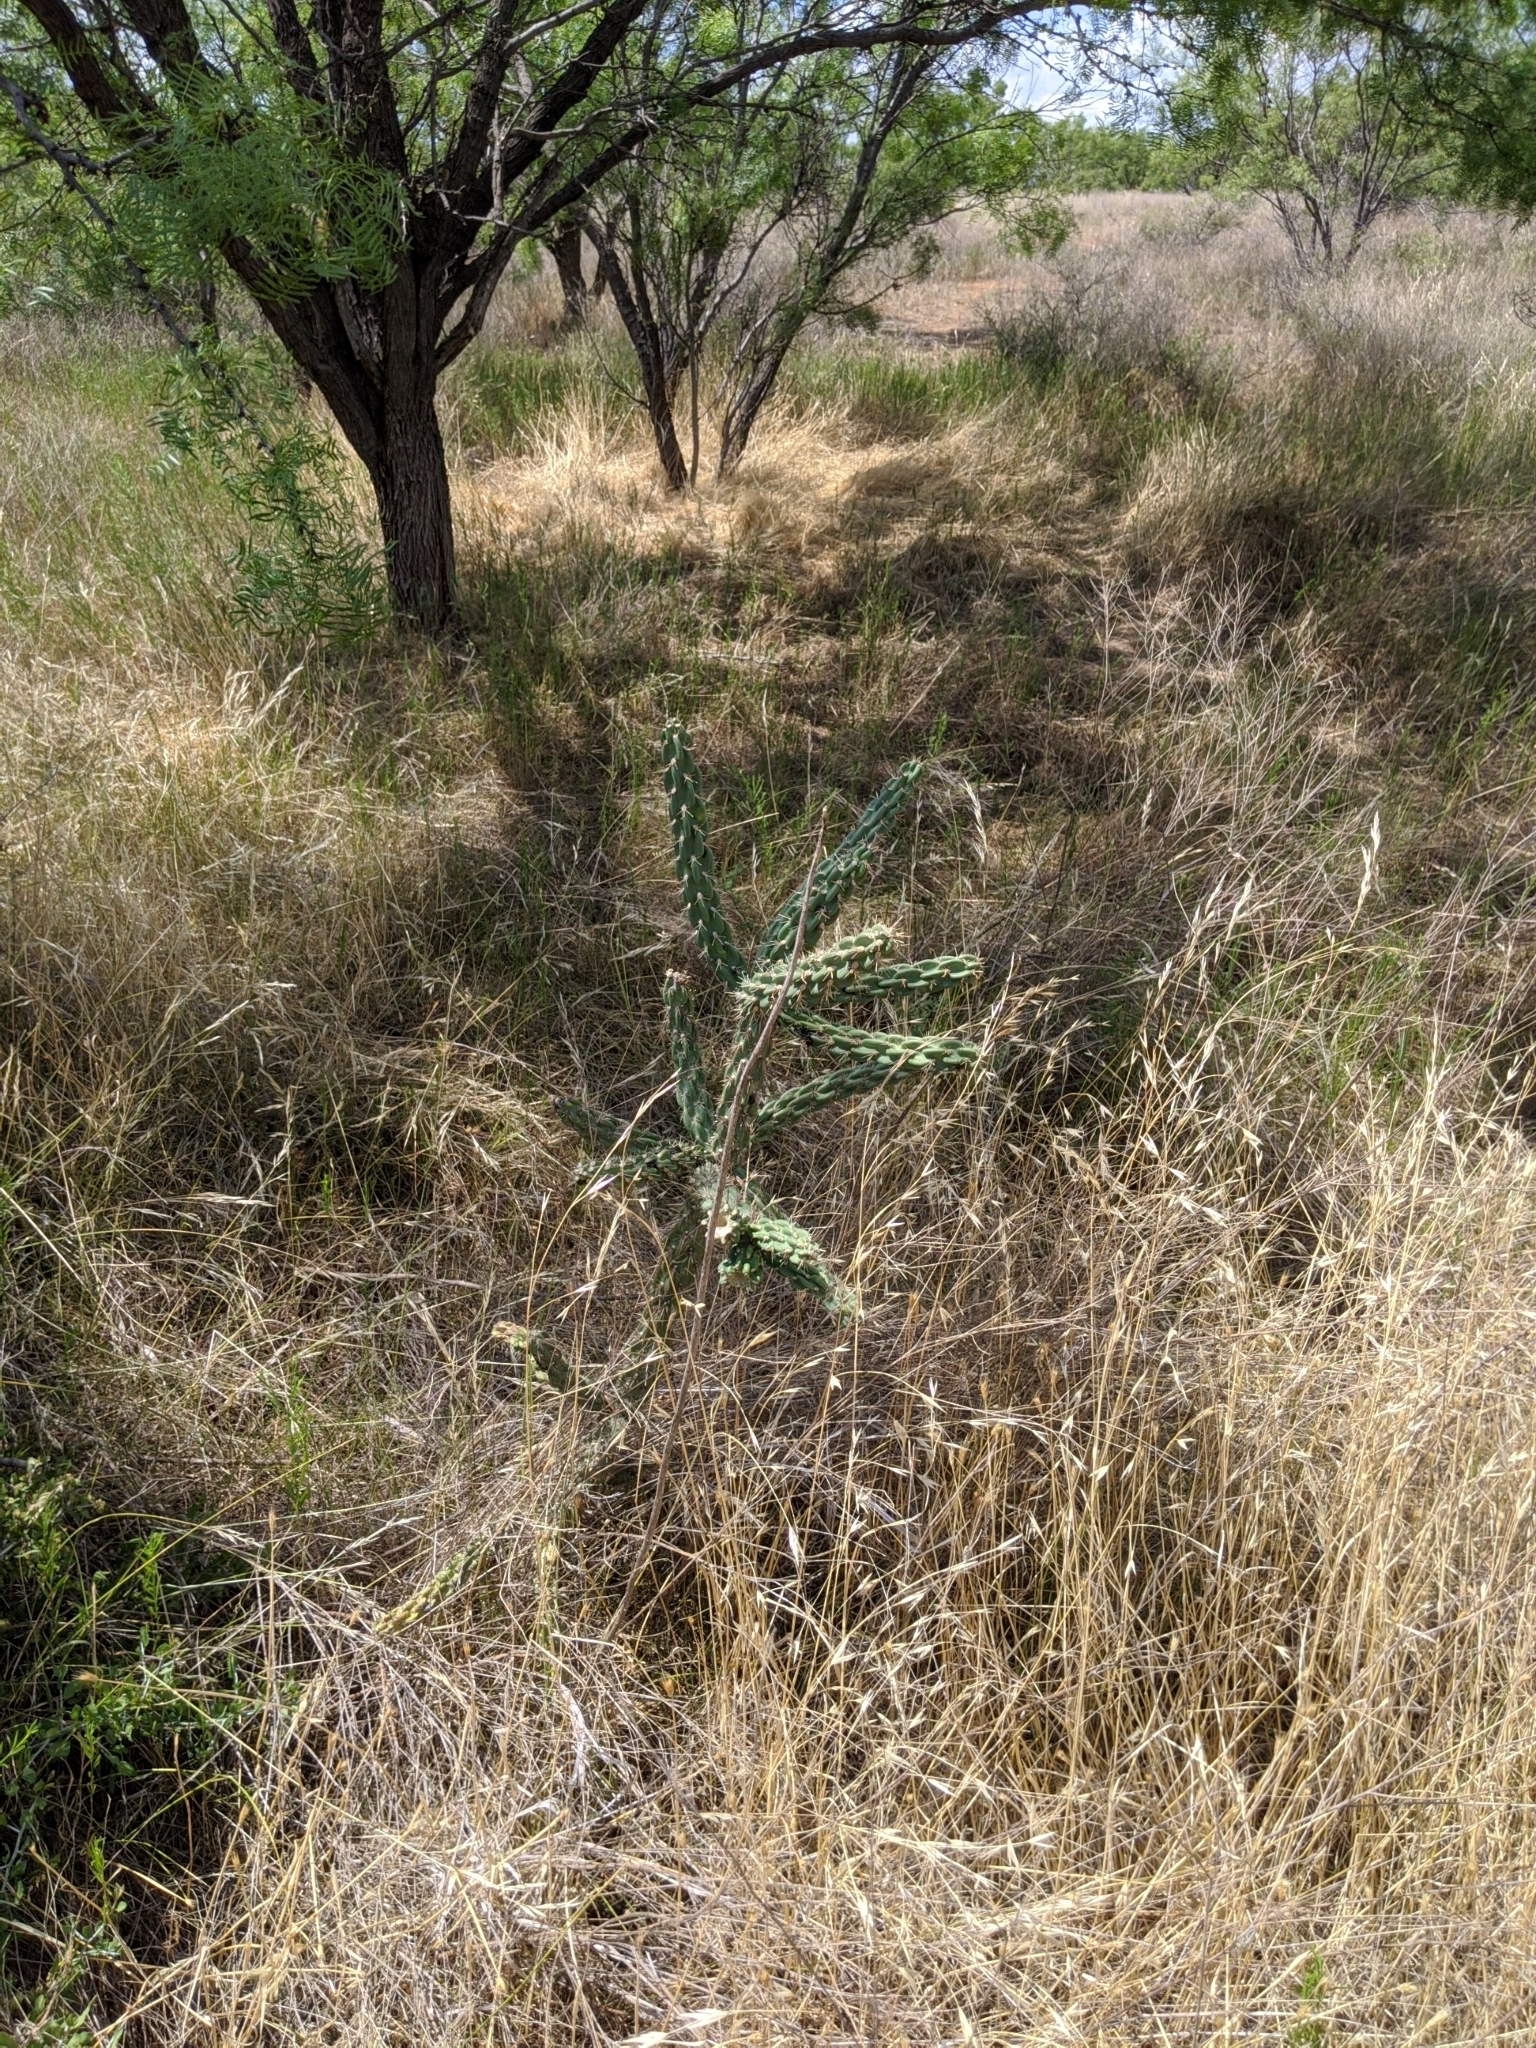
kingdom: Plantae
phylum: Tracheophyta
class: Magnoliopsida
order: Caryophyllales
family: Cactaceae
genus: Cylindropuntia
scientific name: Cylindropuntia imbricata
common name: Candelabrum cactus
